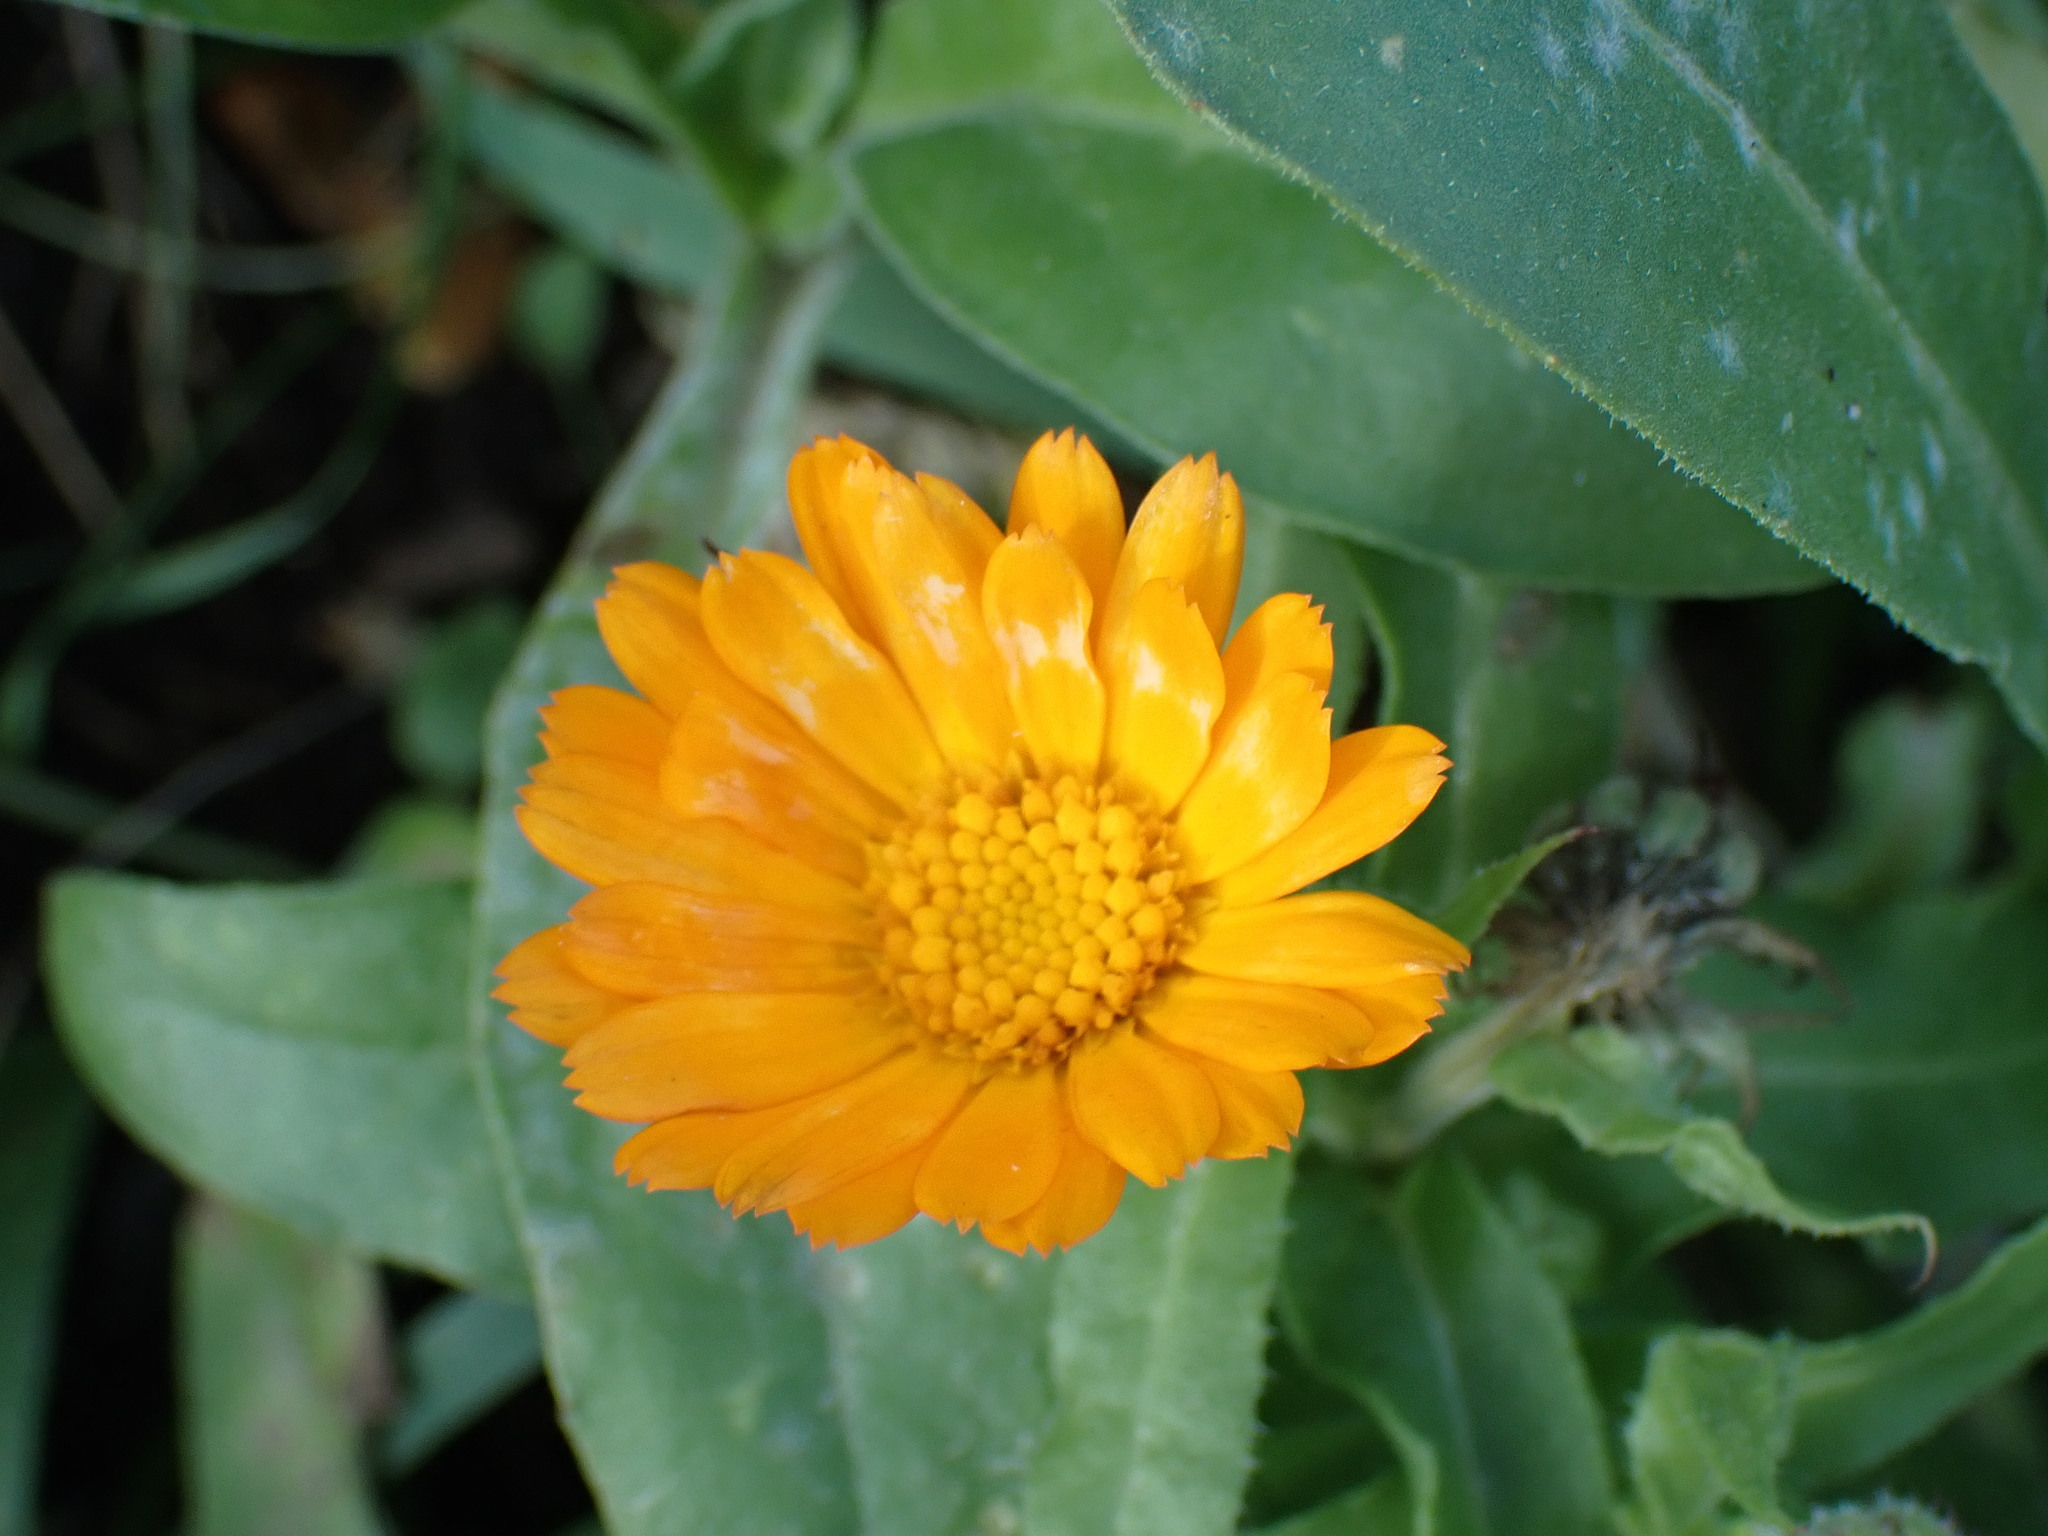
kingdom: Plantae
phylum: Tracheophyta
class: Magnoliopsida
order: Asterales
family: Asteraceae
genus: Calendula
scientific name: Calendula officinalis
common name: Pot marigold
